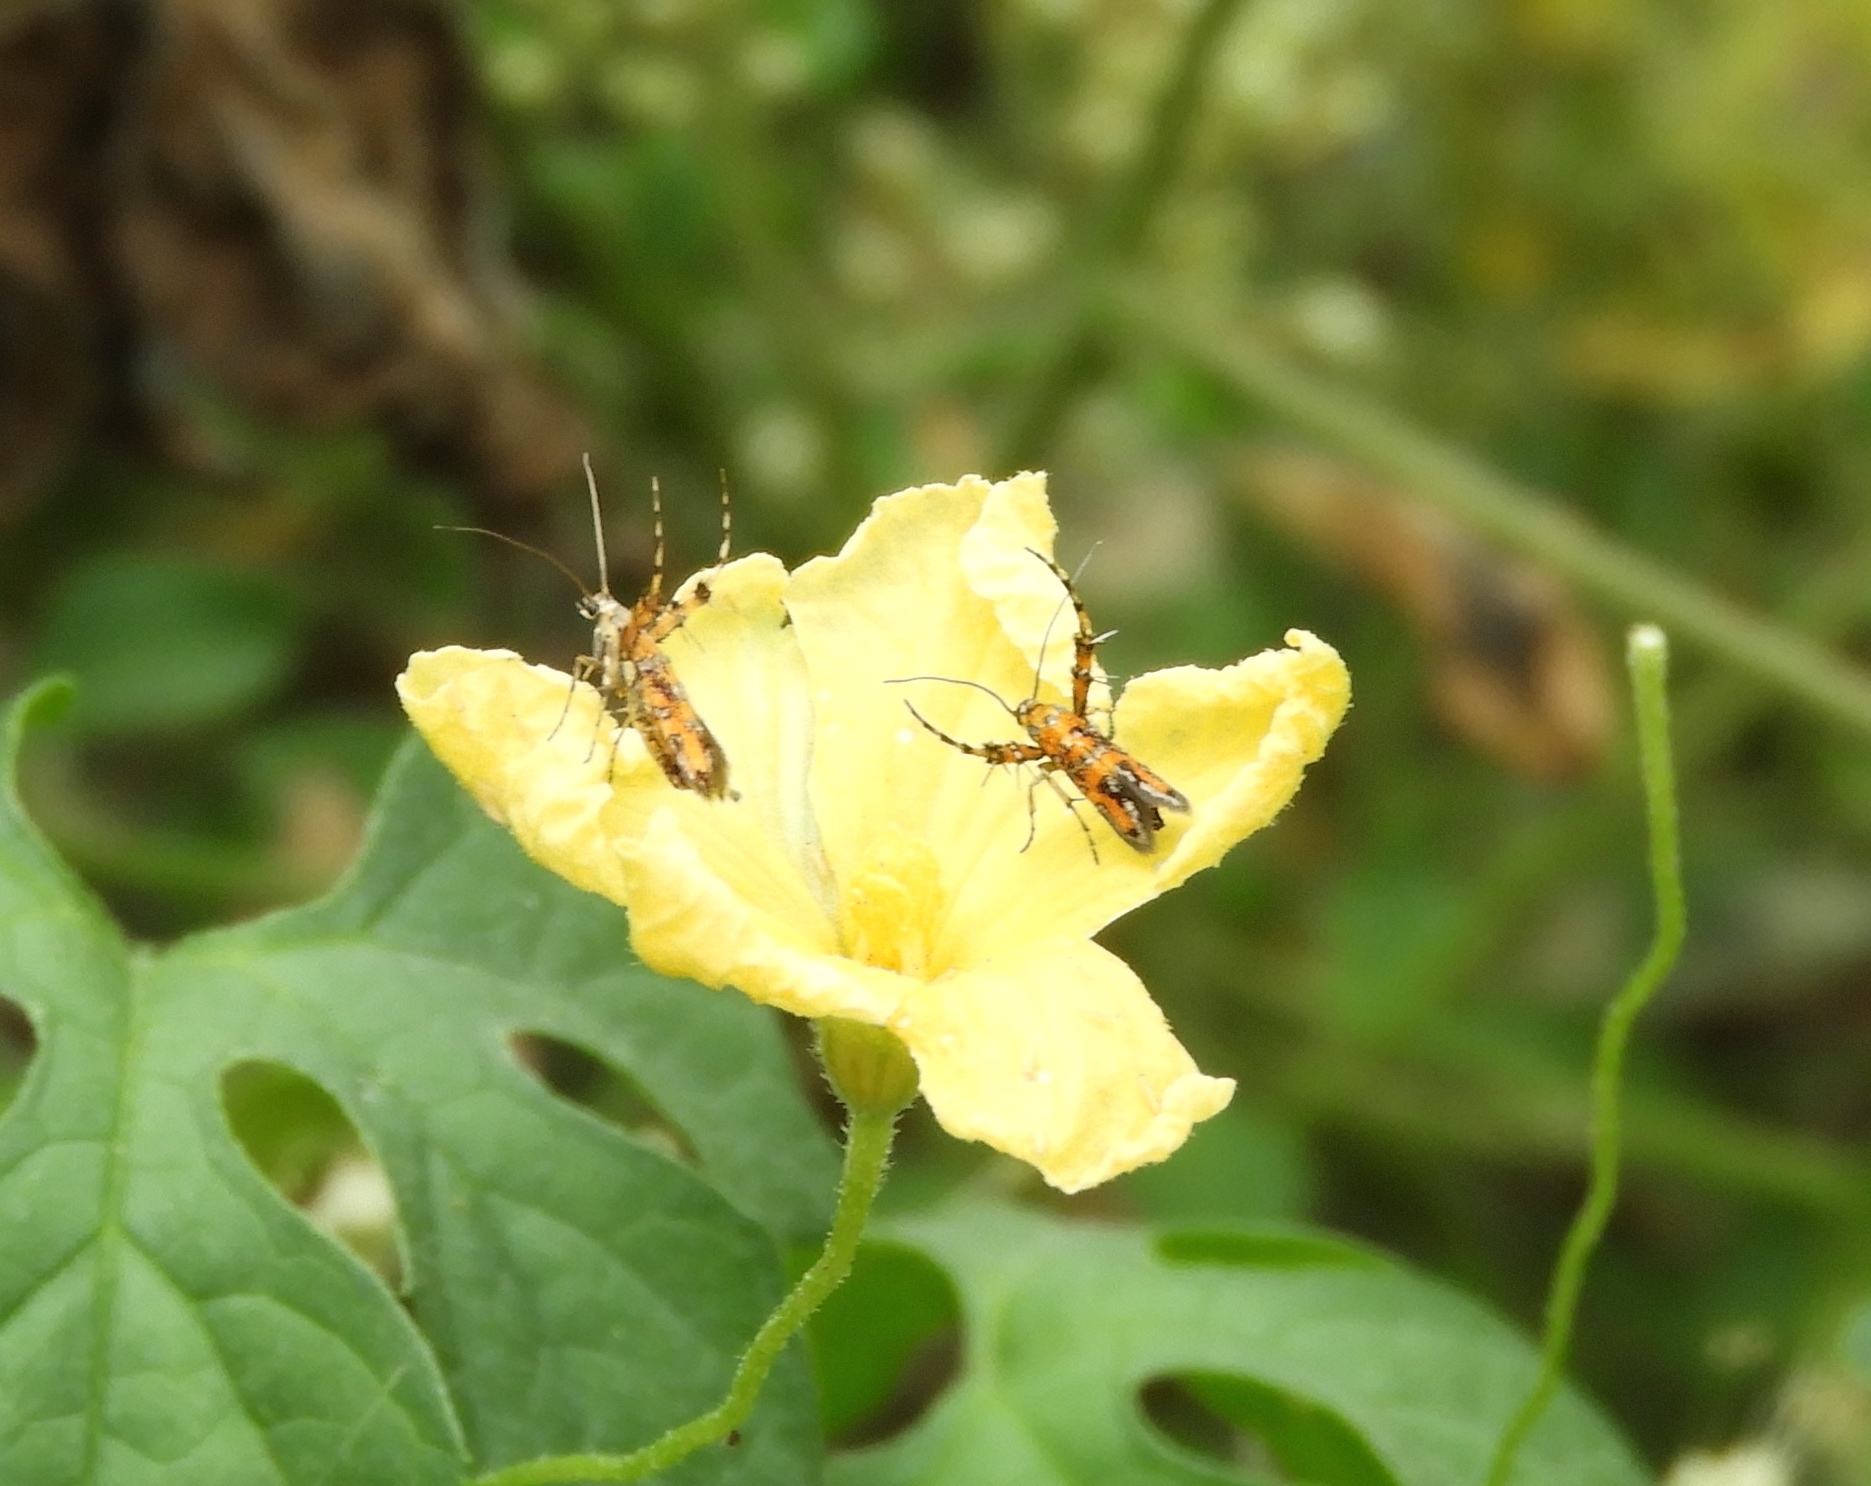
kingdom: Animalia
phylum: Arthropoda
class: Insecta
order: Lepidoptera
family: Heliodinidae
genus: Heliodines
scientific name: Heliodines
